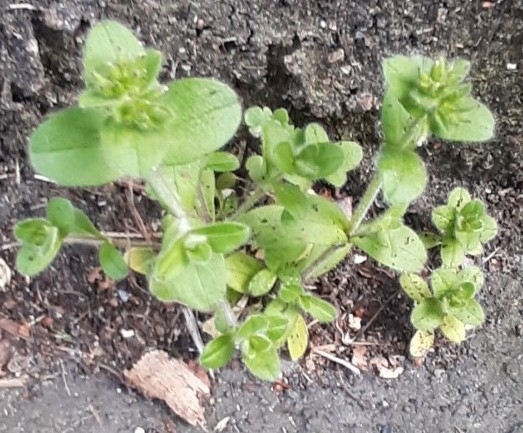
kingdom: Plantae
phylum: Tracheophyta
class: Magnoliopsida
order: Caryophyllales
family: Caryophyllaceae
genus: Cerastium
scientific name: Cerastium glomeratum
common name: Sticky chickweed
